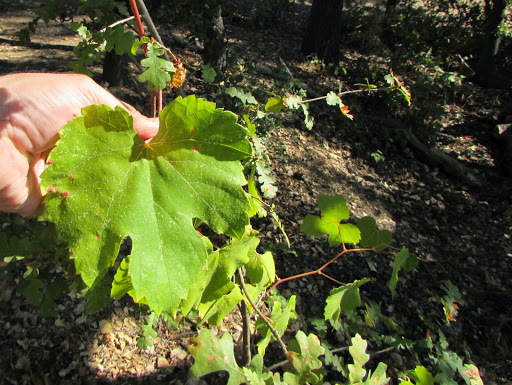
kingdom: Plantae
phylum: Tracheophyta
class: Magnoliopsida
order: Vitales
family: Vitaceae
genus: Vitis
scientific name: Vitis californica
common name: California wild grape
